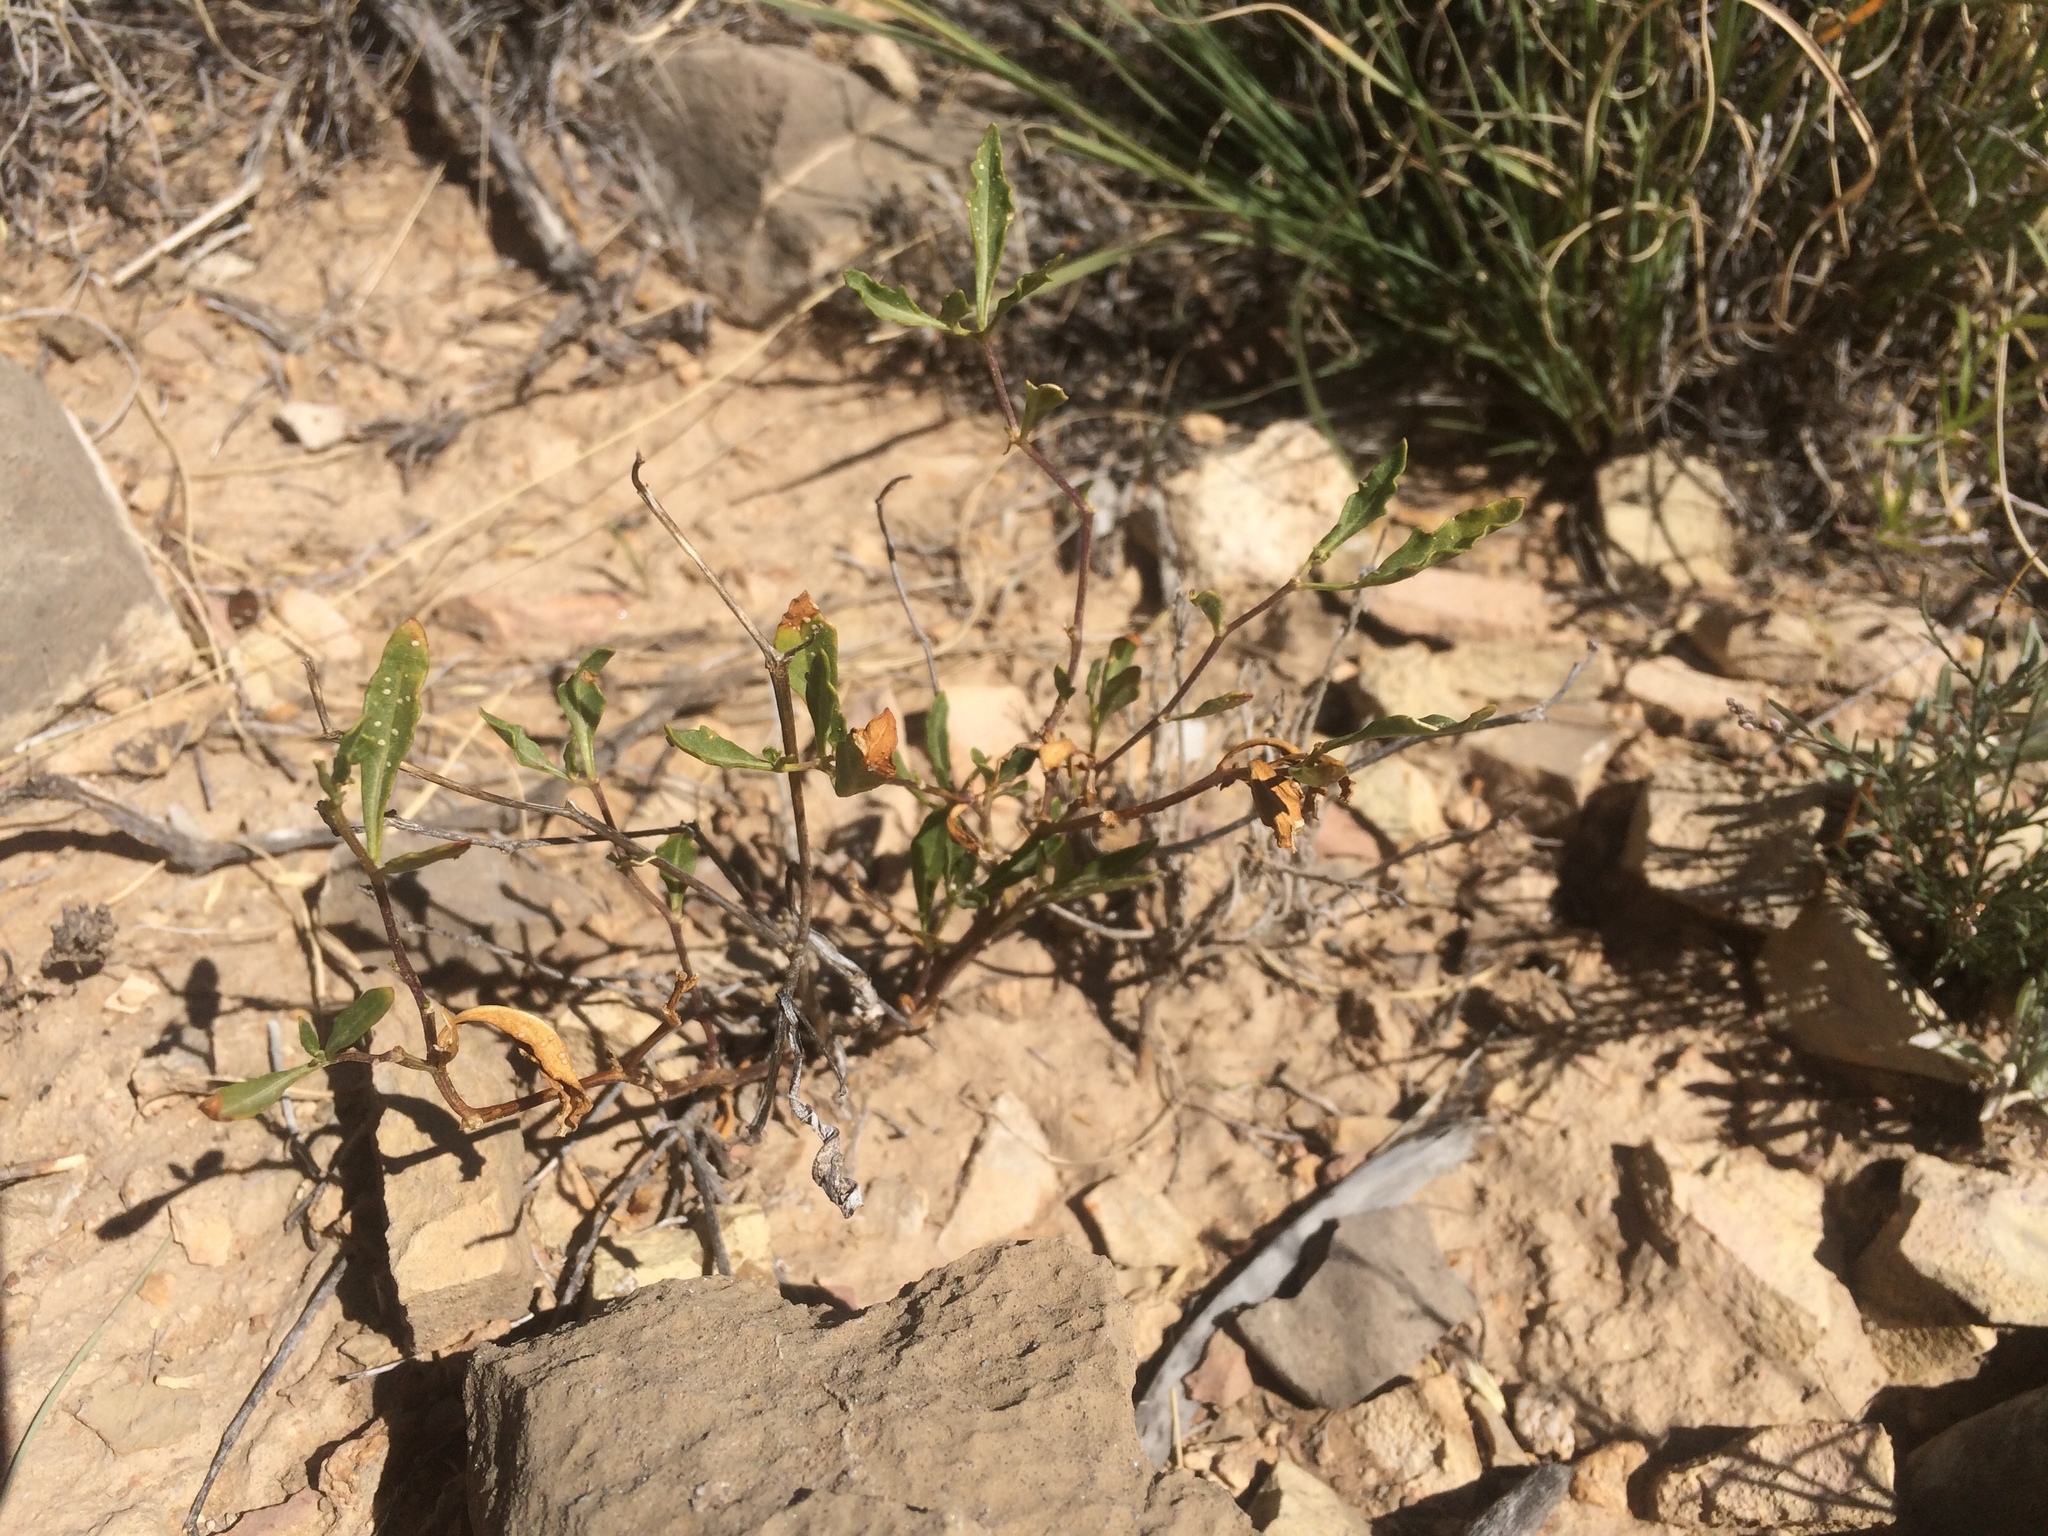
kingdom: Plantae
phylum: Tracheophyta
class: Magnoliopsida
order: Solanales
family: Solanaceae
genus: Chamaesaracha
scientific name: Chamaesaracha pallida
